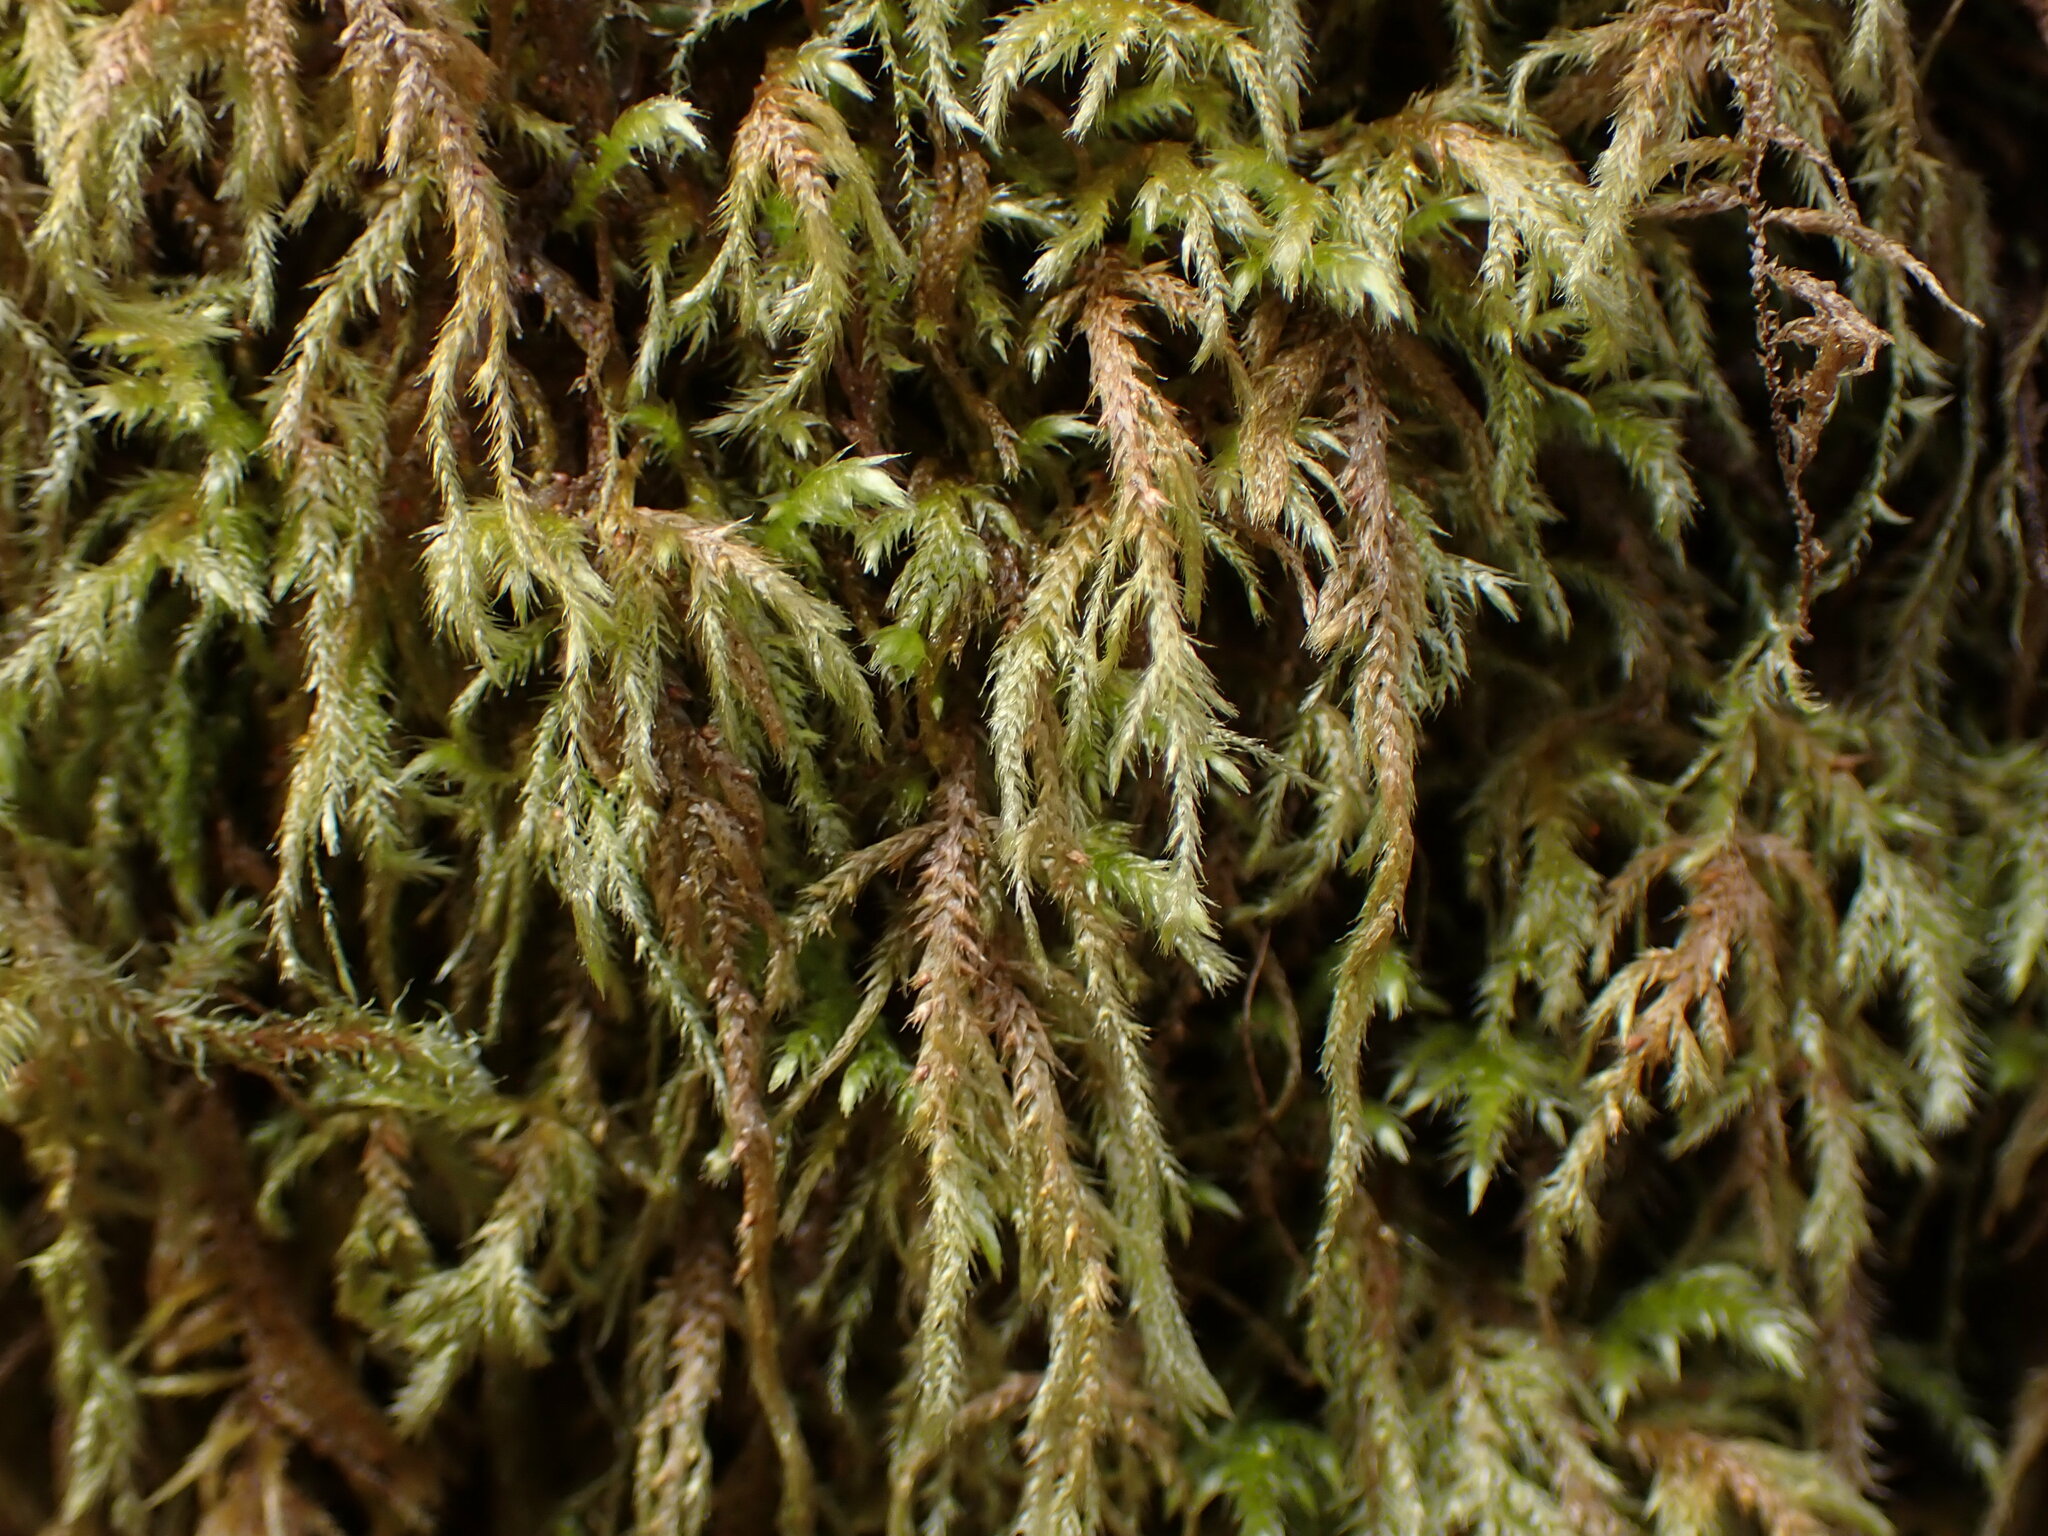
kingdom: Plantae
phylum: Bryophyta
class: Bryopsida
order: Hypnales
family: Lembophyllaceae
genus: Pseudisothecium
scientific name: Pseudisothecium stoloniferum
